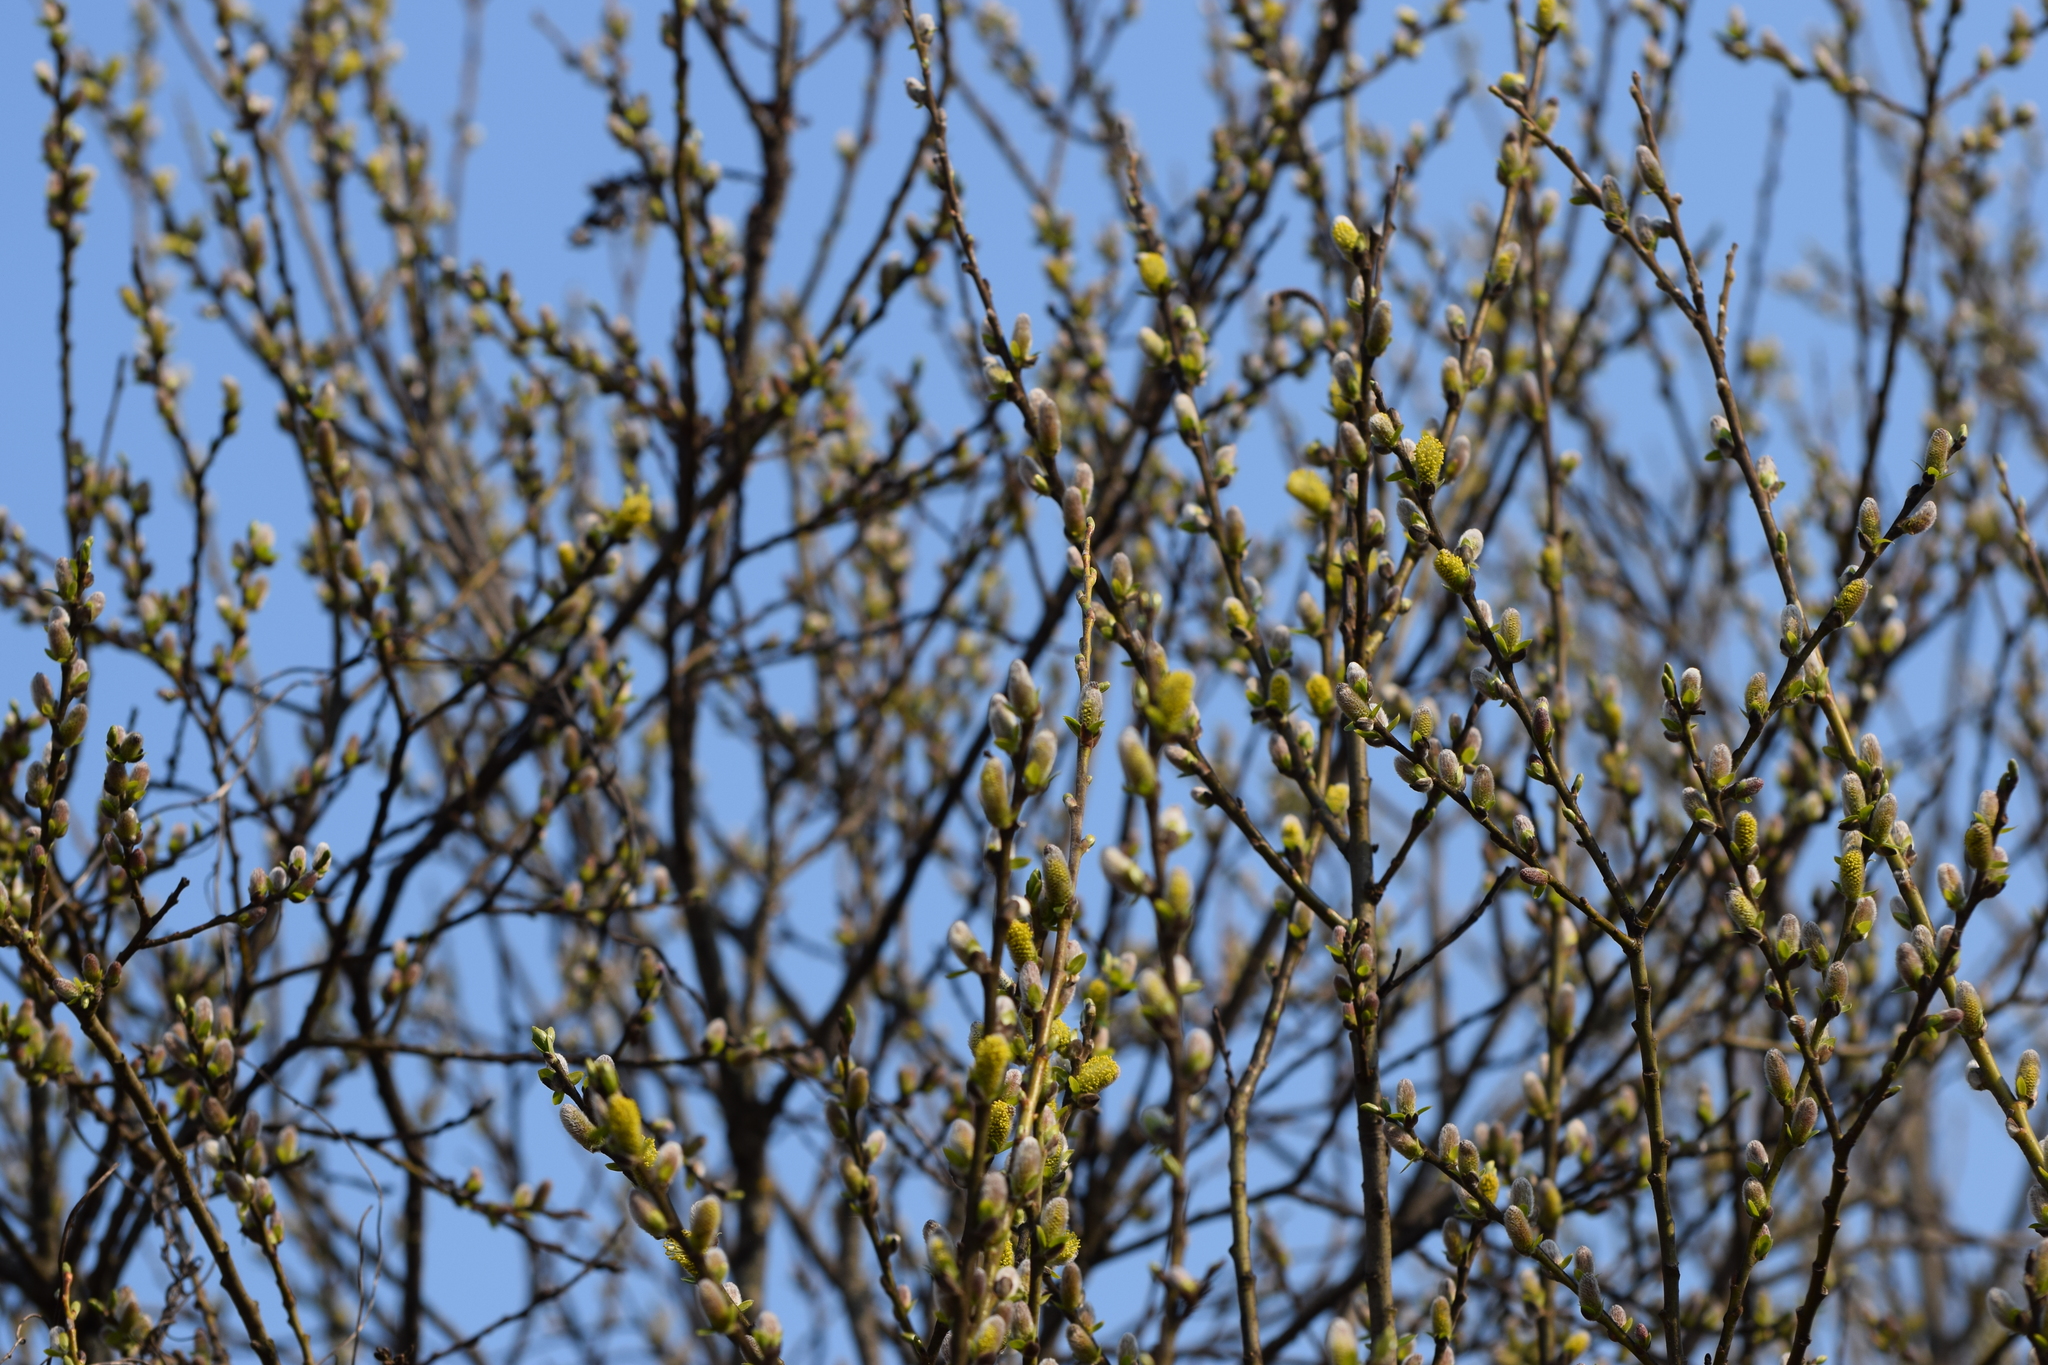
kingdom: Plantae
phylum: Tracheophyta
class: Magnoliopsida
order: Malpighiales
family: Salicaceae
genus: Salix
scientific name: Salix myrsinifolia
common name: Dark-leaved willow
